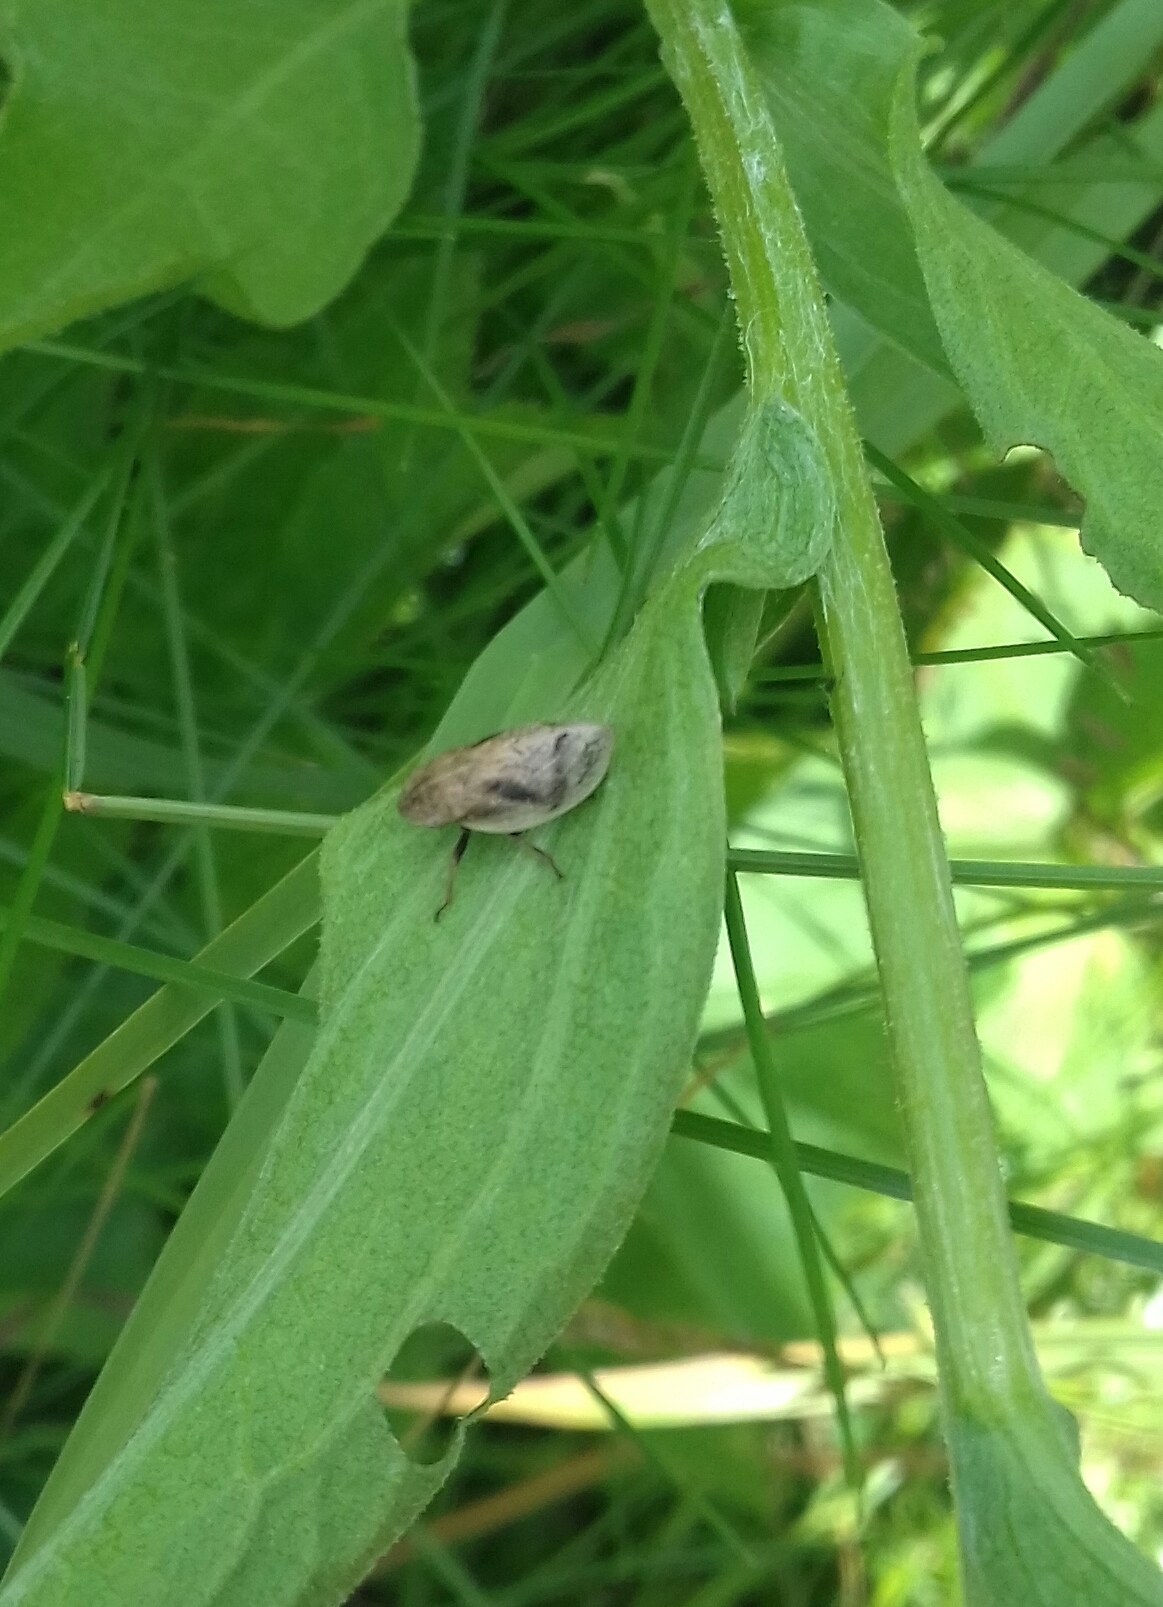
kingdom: Animalia
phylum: Arthropoda
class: Insecta
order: Hemiptera
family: Aphrophoridae
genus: Lepyronia
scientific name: Lepyronia coleoptrata
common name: Leafhopper
